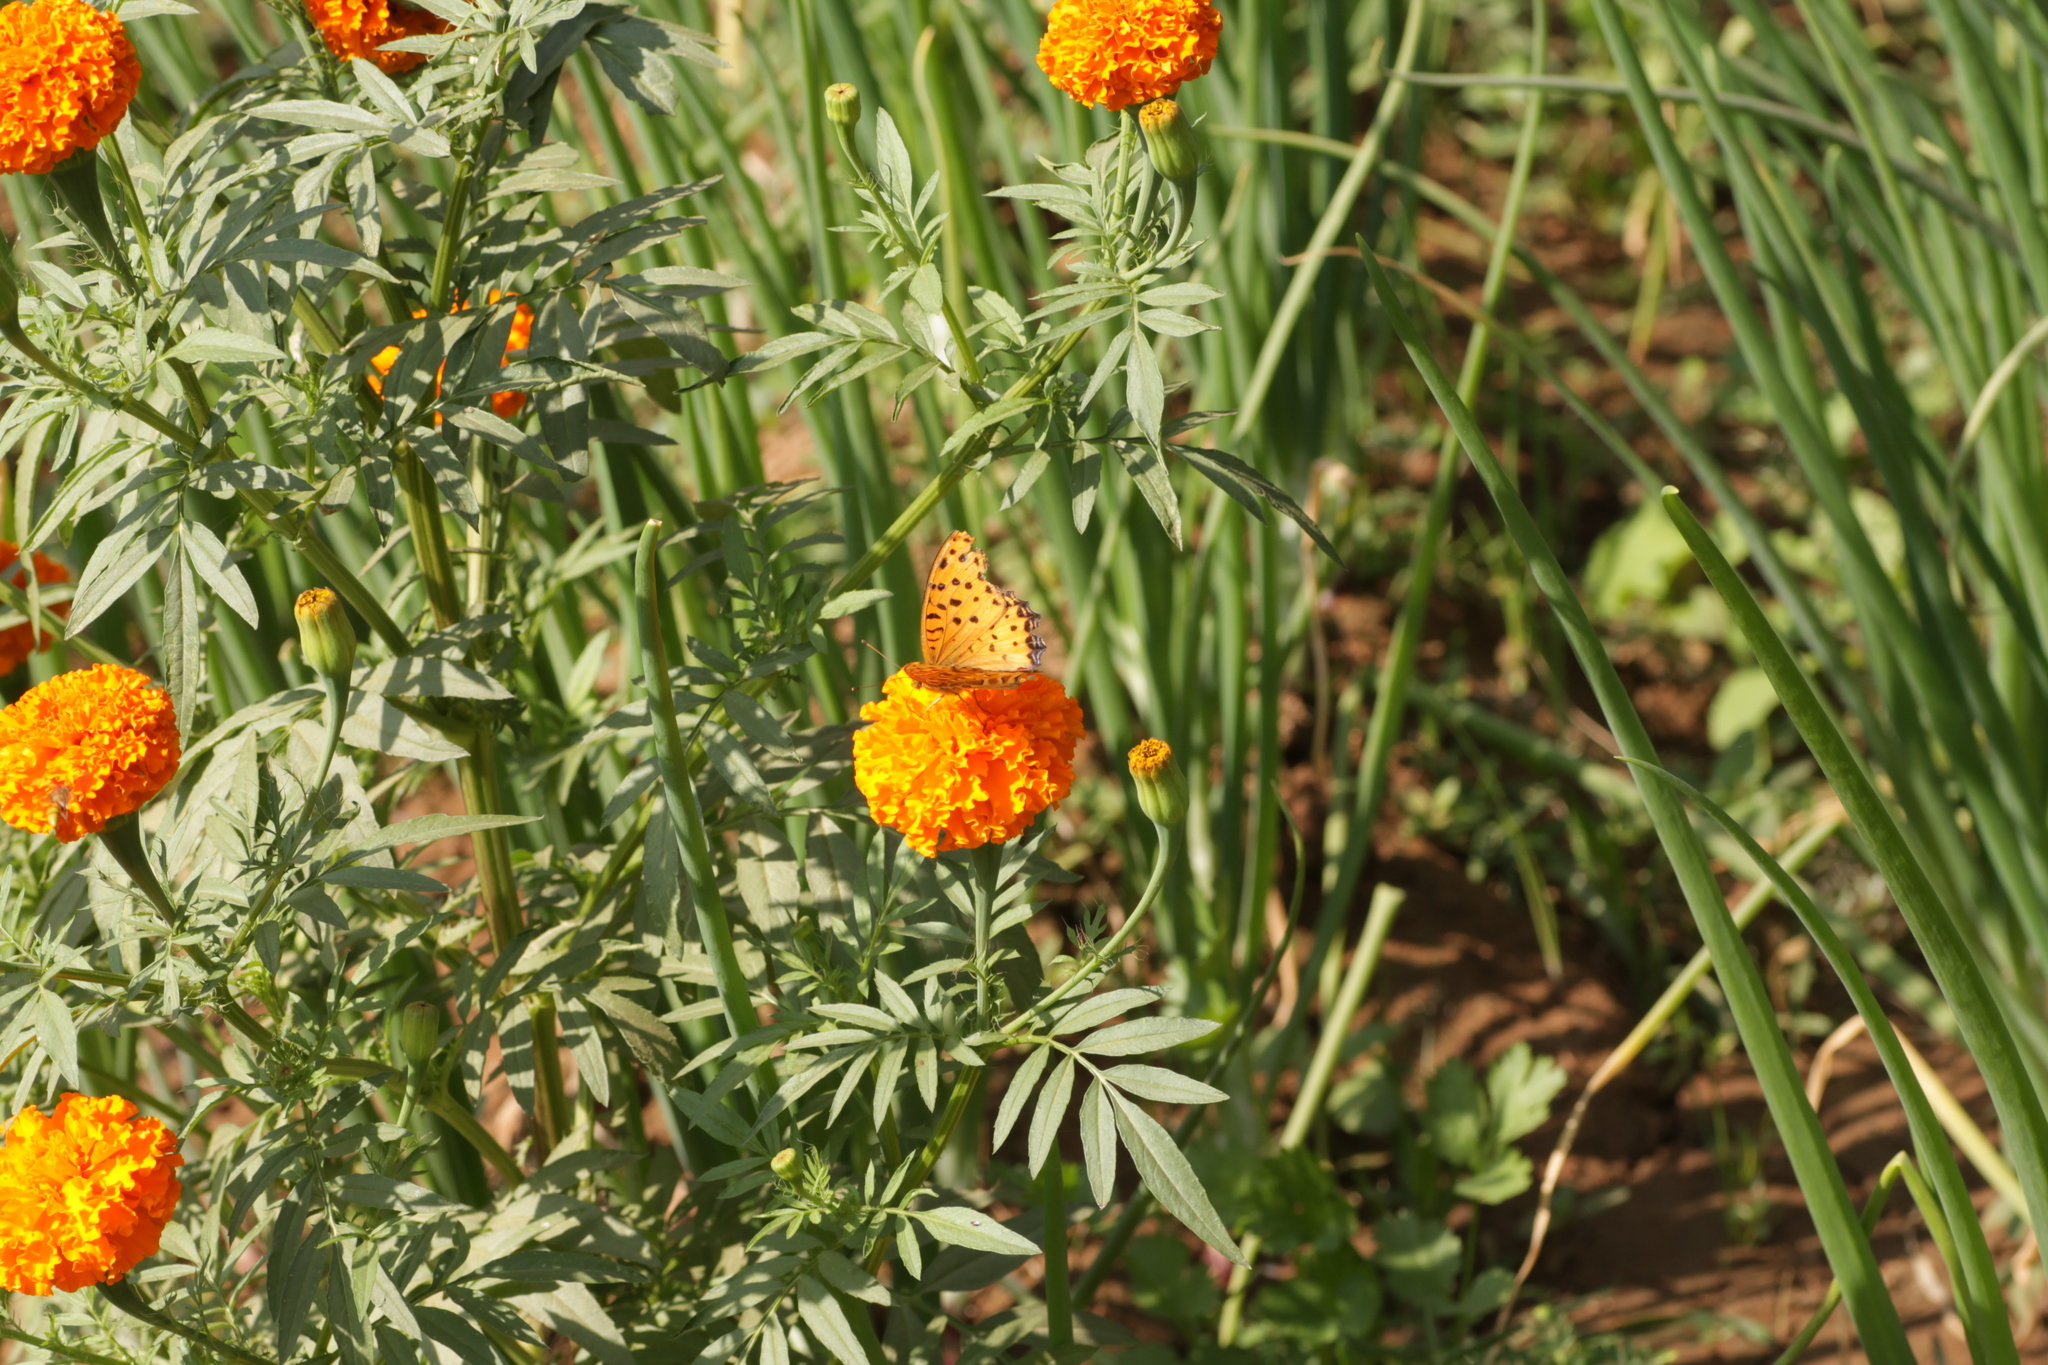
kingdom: Animalia
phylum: Arthropoda
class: Insecta
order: Lepidoptera
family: Nymphalidae
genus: Argynnis
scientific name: Argynnis hyperbius
